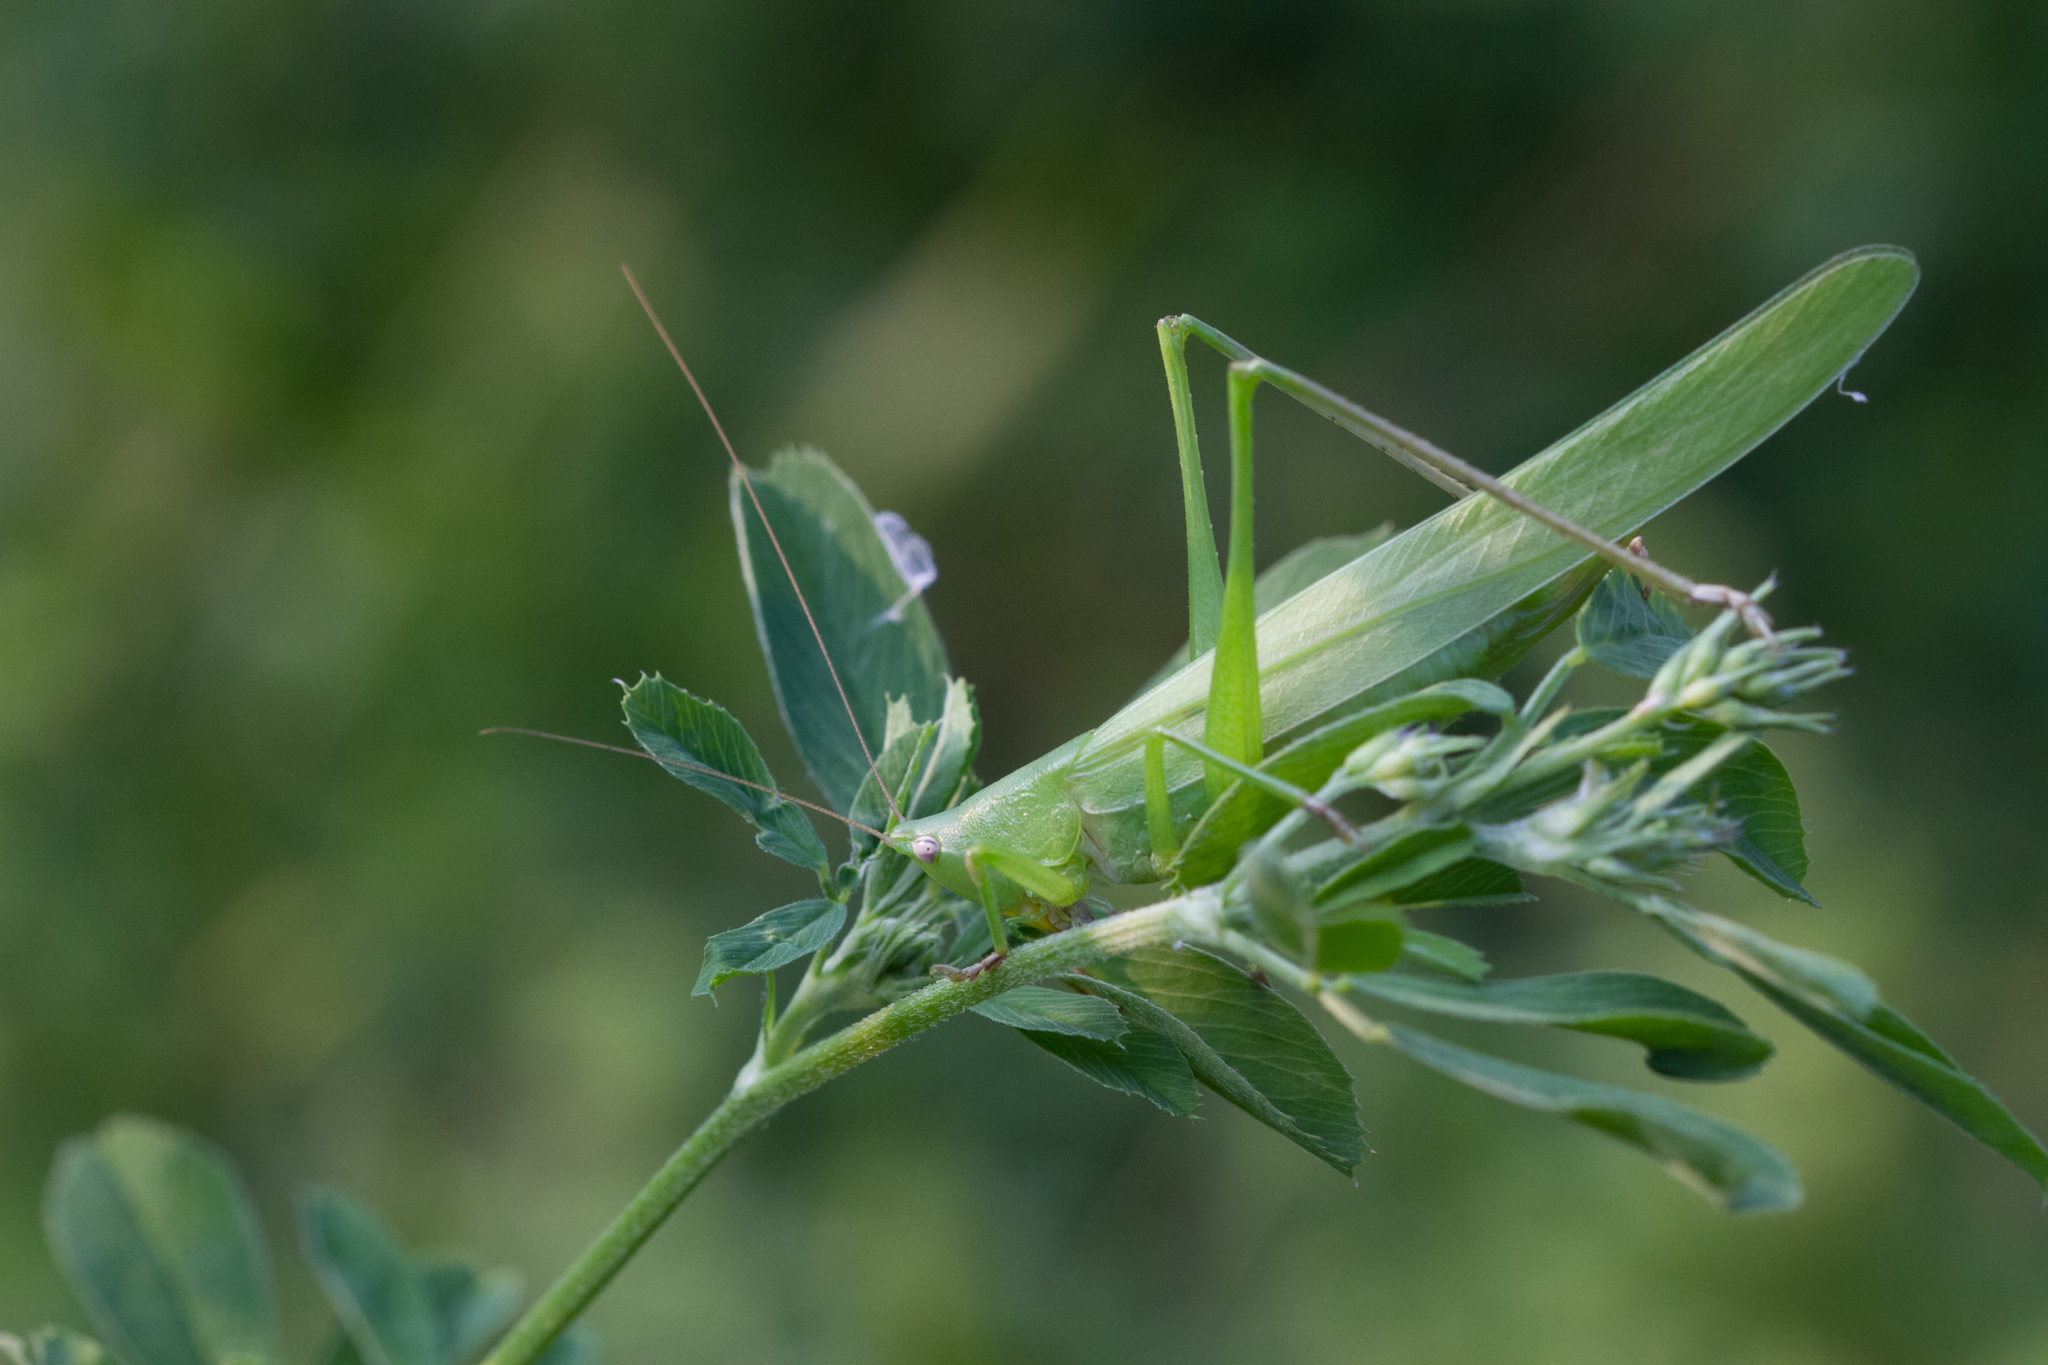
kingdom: Animalia
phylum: Arthropoda
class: Insecta
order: Orthoptera
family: Tettigoniidae
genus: Ruspolia
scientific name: Ruspolia nitidula
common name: Large conehead
